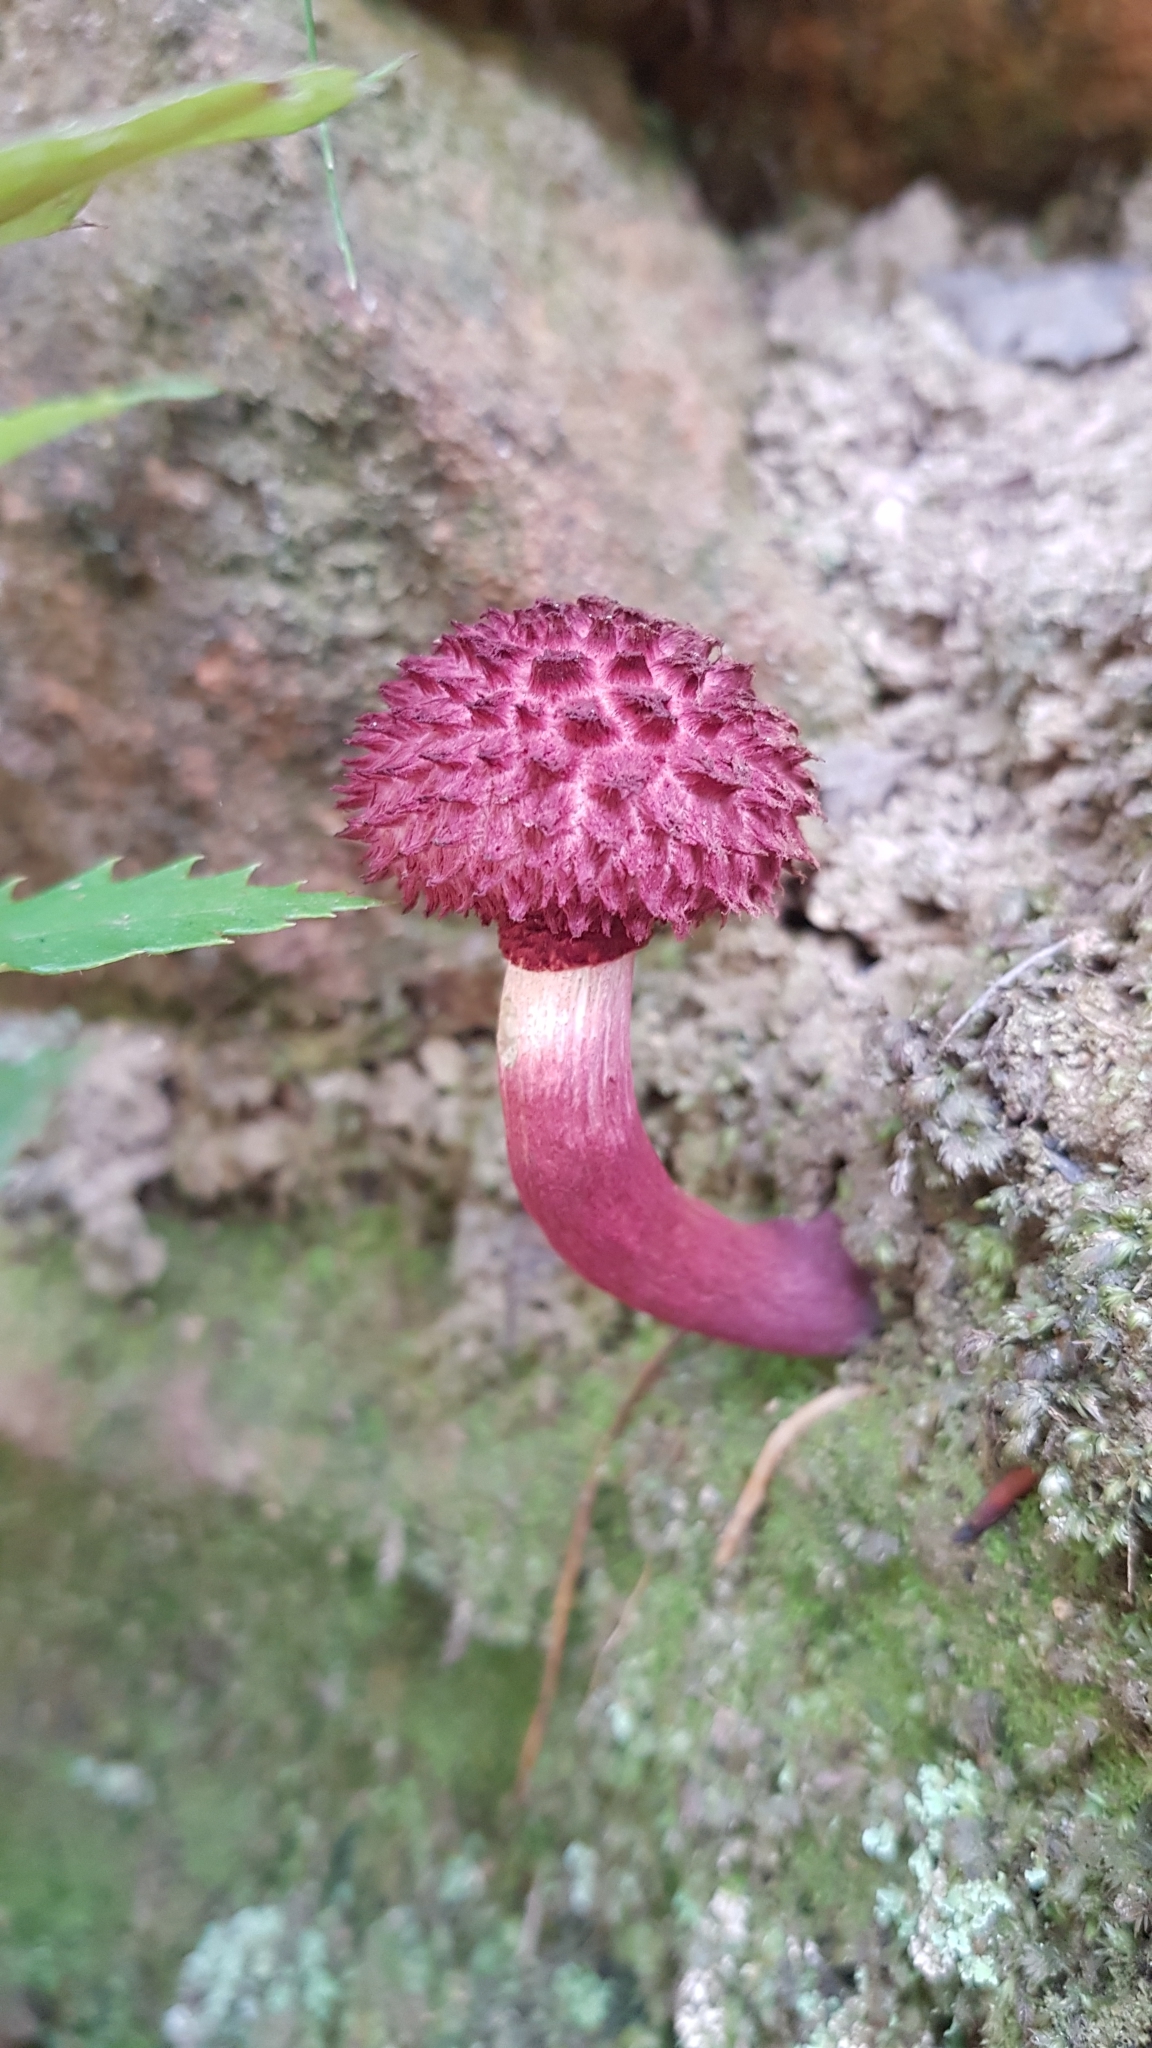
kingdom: Fungi
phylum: Basidiomycota
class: Agaricomycetes
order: Boletales
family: Boletaceae
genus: Boletellus
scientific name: Boletellus emodensis
